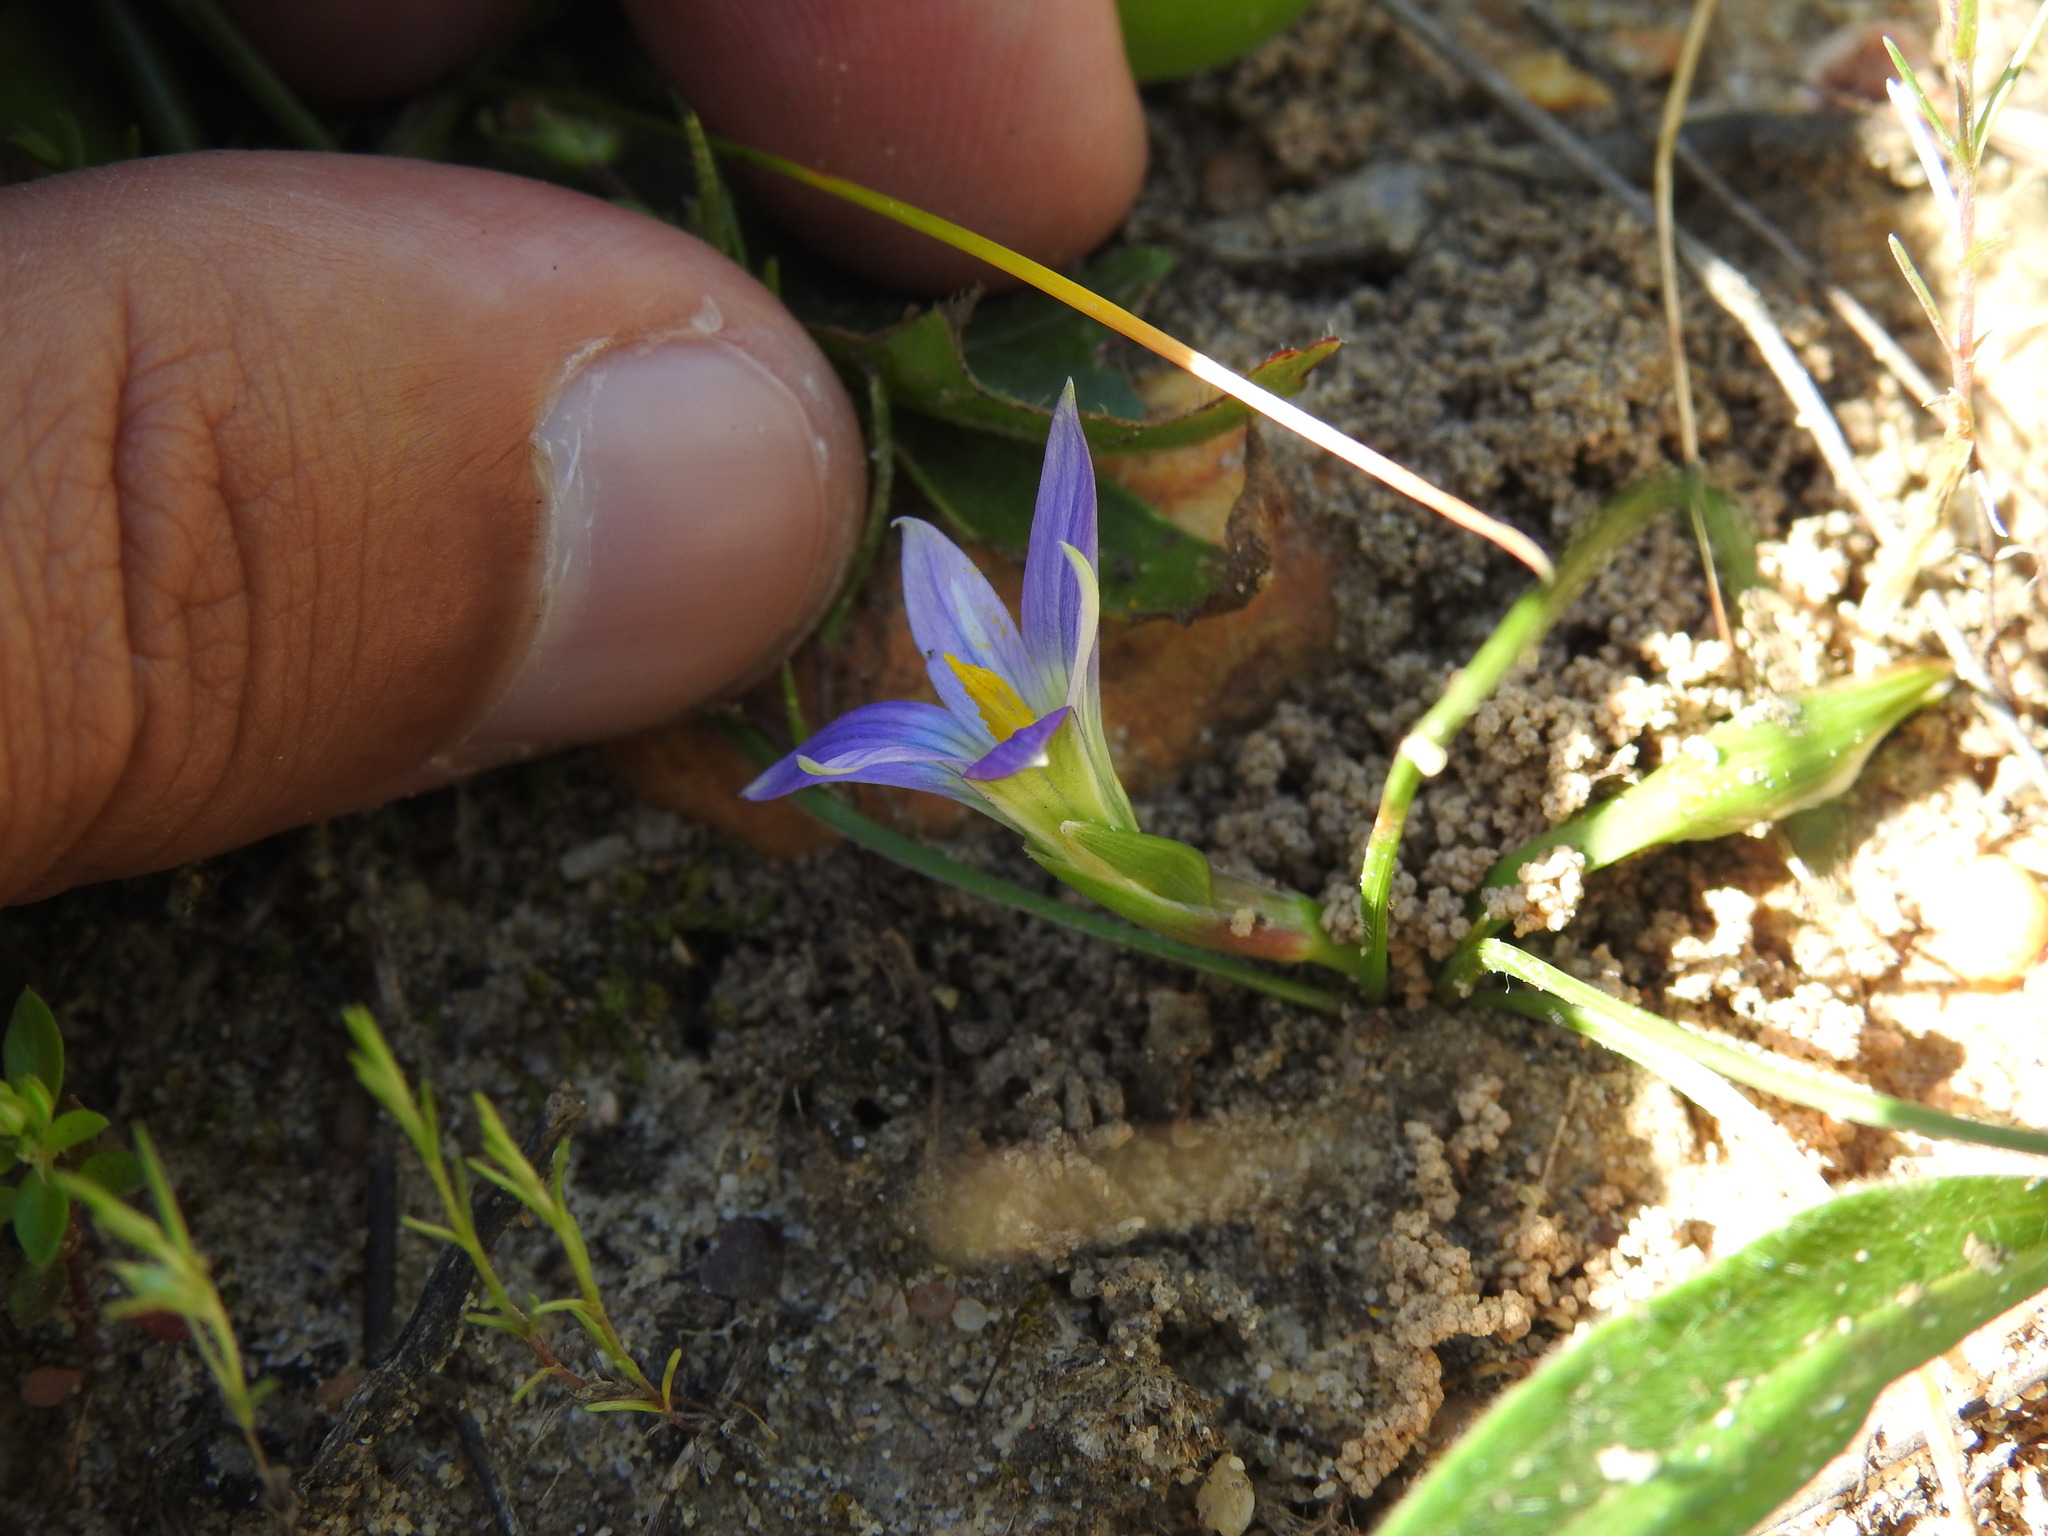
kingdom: Plantae
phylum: Tracheophyta
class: Liliopsida
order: Asparagales
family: Iridaceae
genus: Romulea
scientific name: Romulea ramiflora
